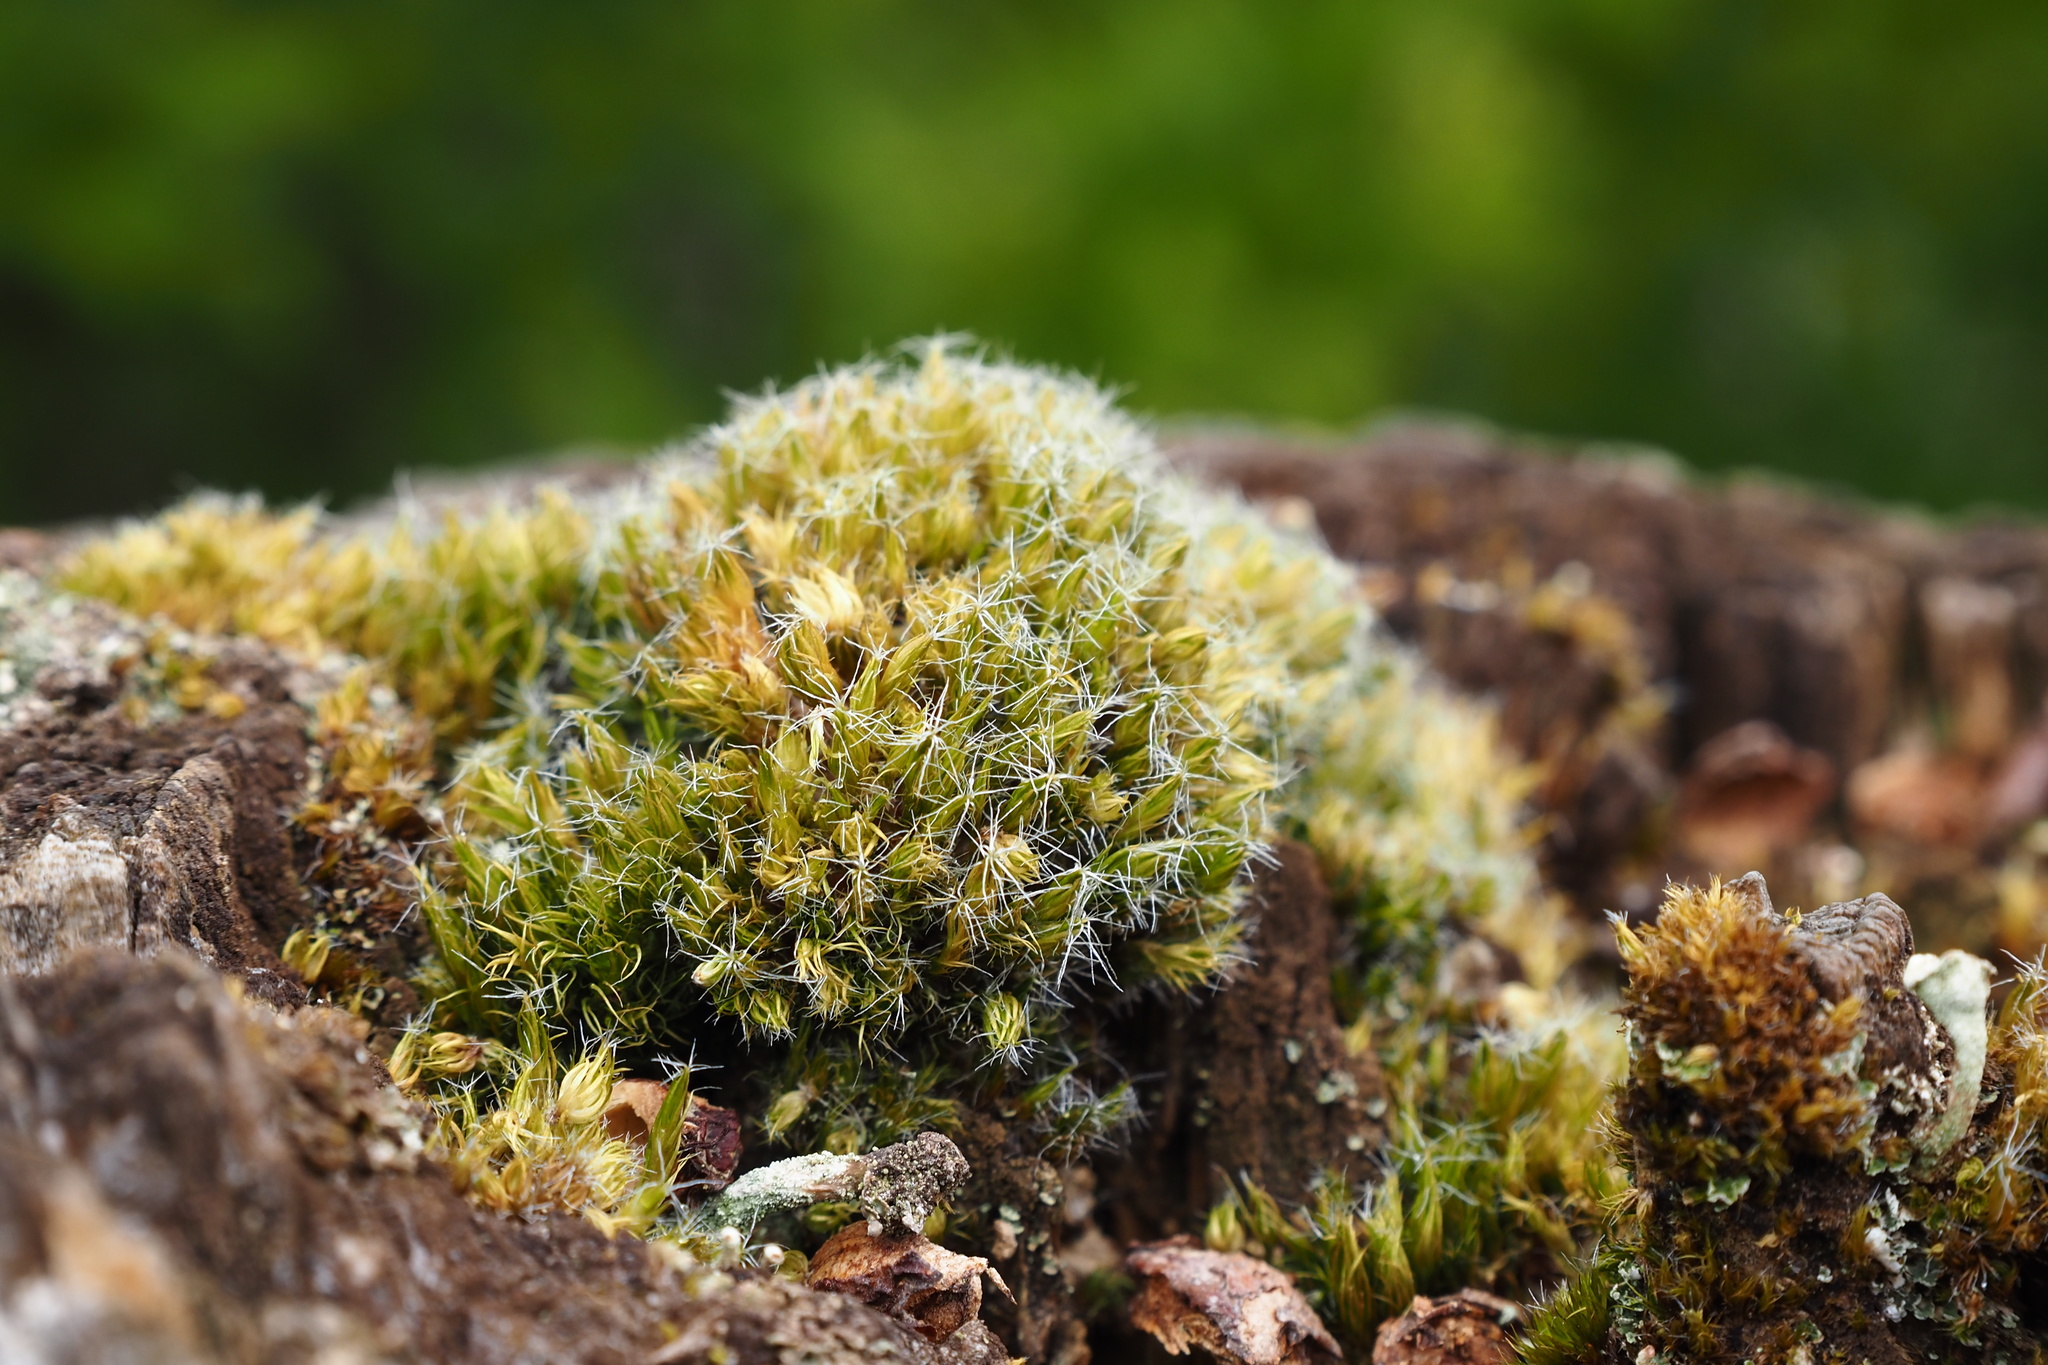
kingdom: Plantae
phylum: Bryophyta
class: Bryopsida
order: Dicranales
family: Leucobryaceae
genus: Campylopus
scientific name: Campylopus introflexus
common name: Heath star moss
